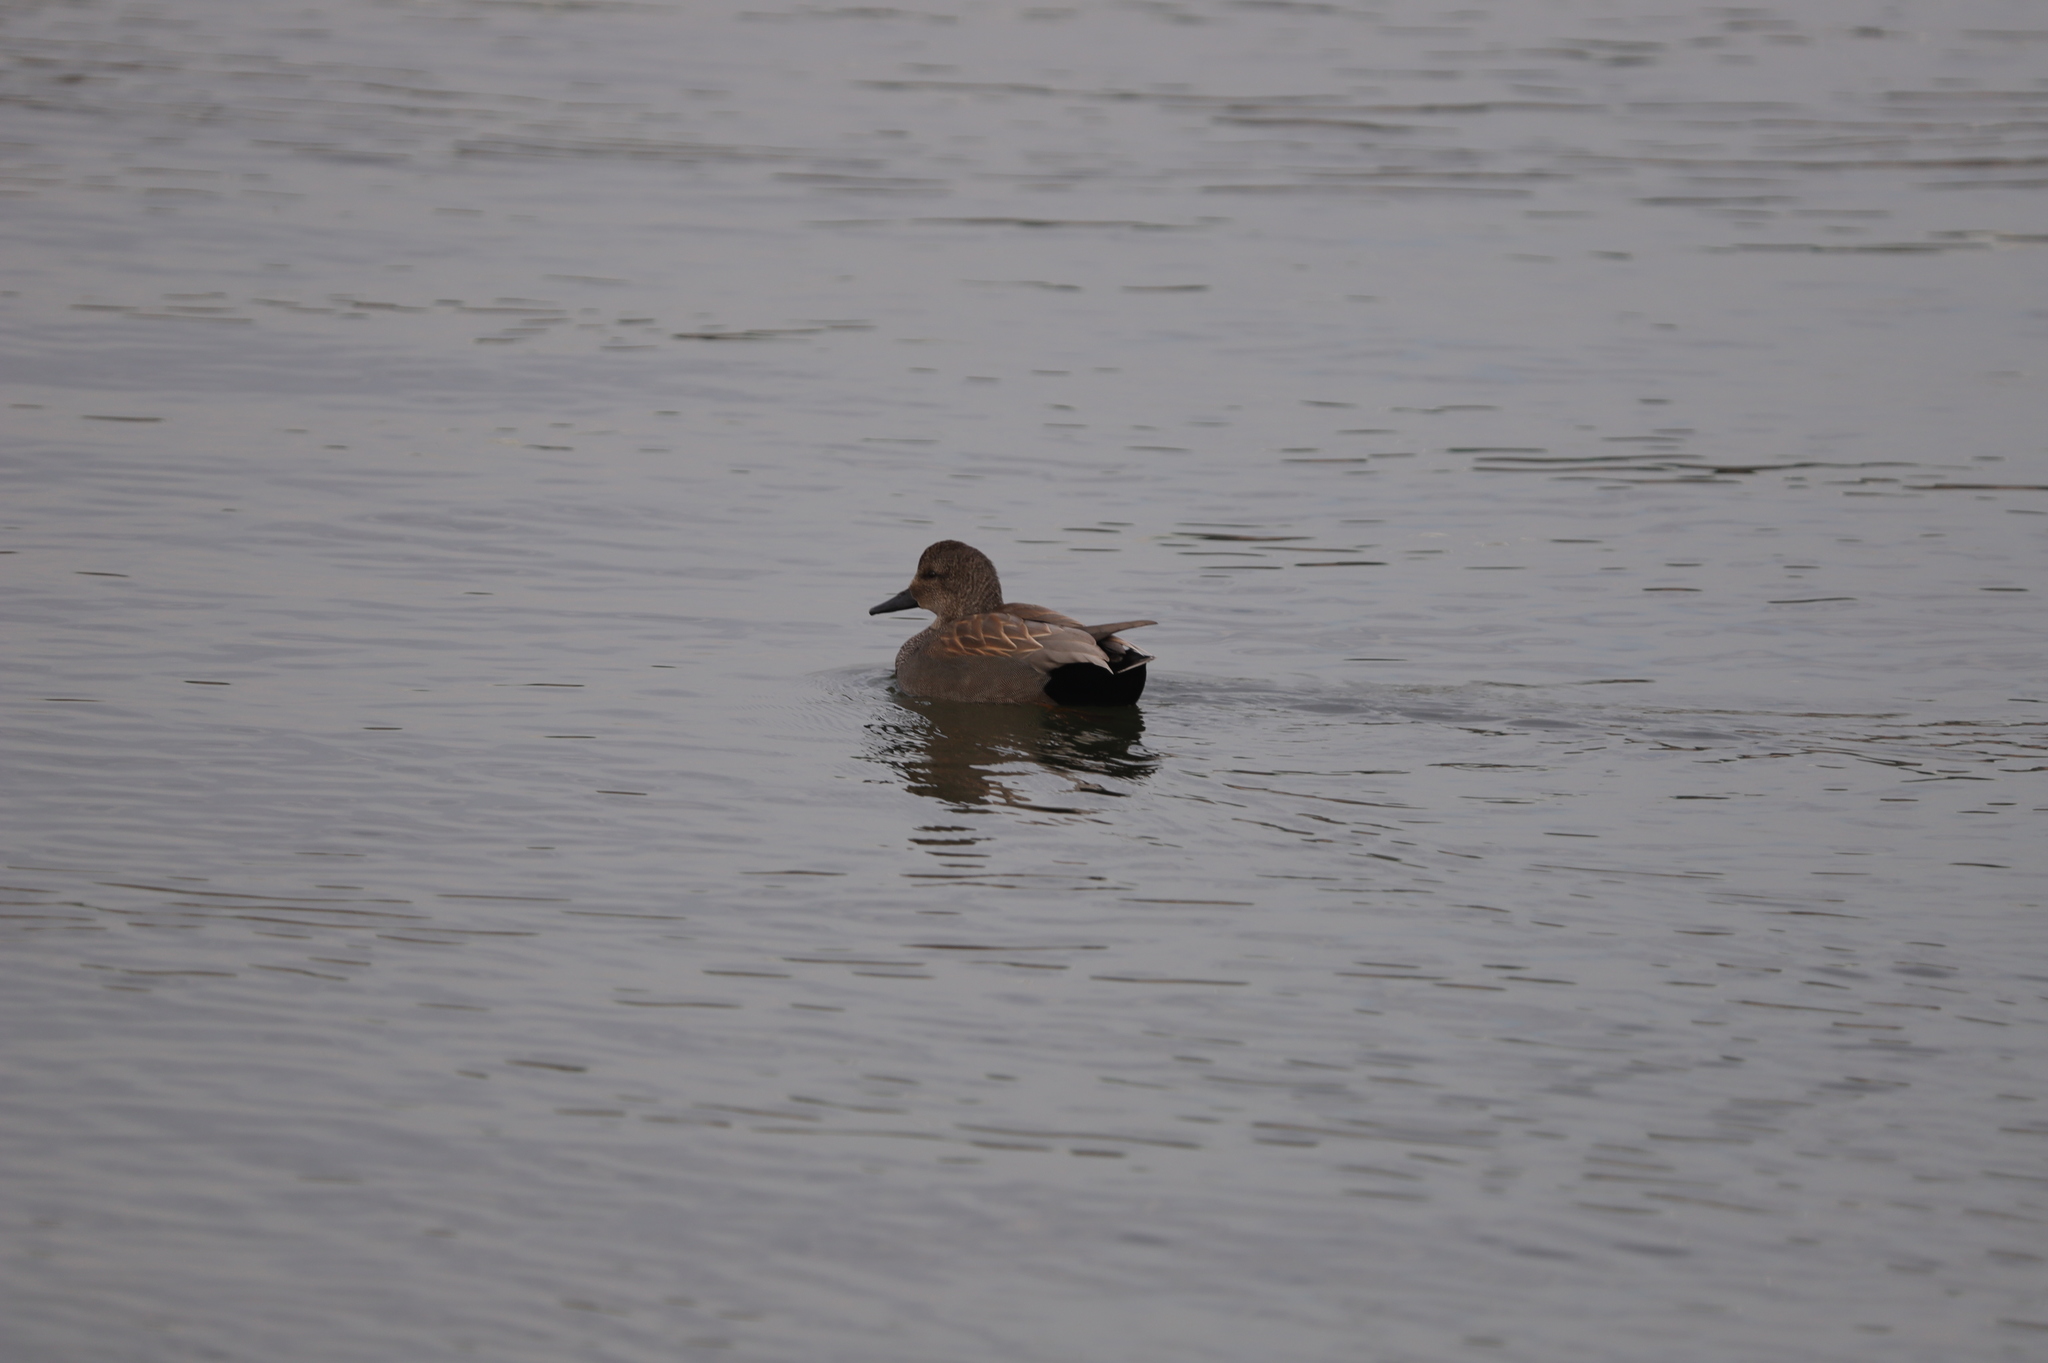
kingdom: Animalia
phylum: Chordata
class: Aves
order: Anseriformes
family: Anatidae
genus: Mareca
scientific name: Mareca strepera
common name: Gadwall
